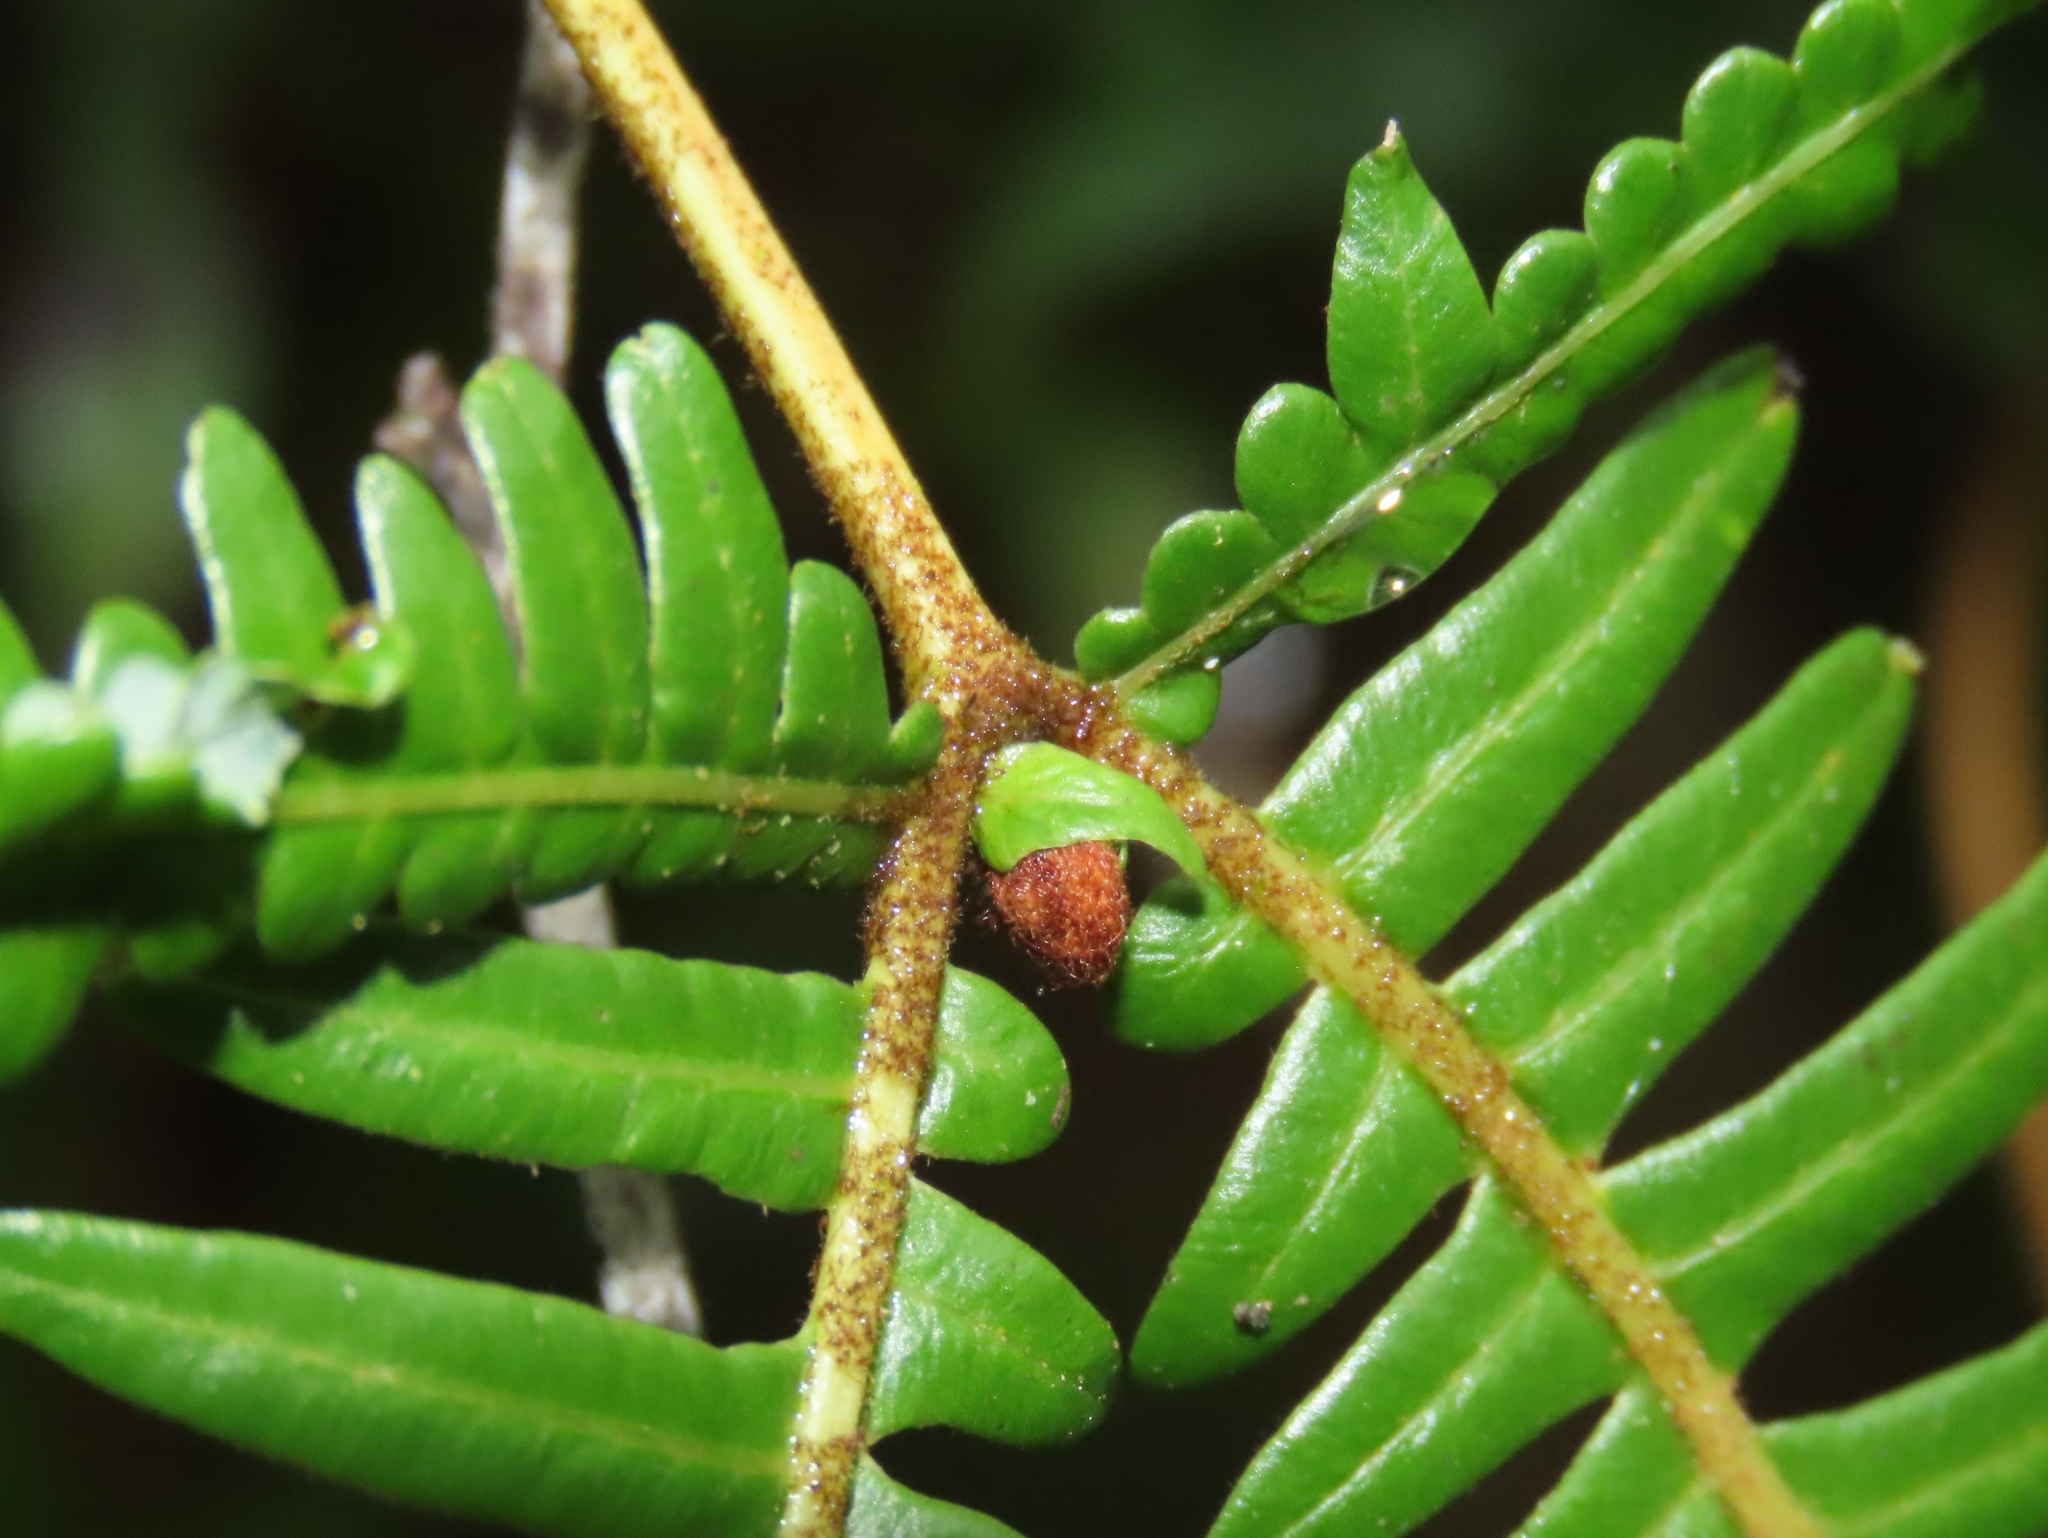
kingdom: Plantae
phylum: Tracheophyta
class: Polypodiopsida
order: Gleicheniales
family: Gleicheniaceae
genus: Dicranopteris
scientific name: Dicranopteris linearis
